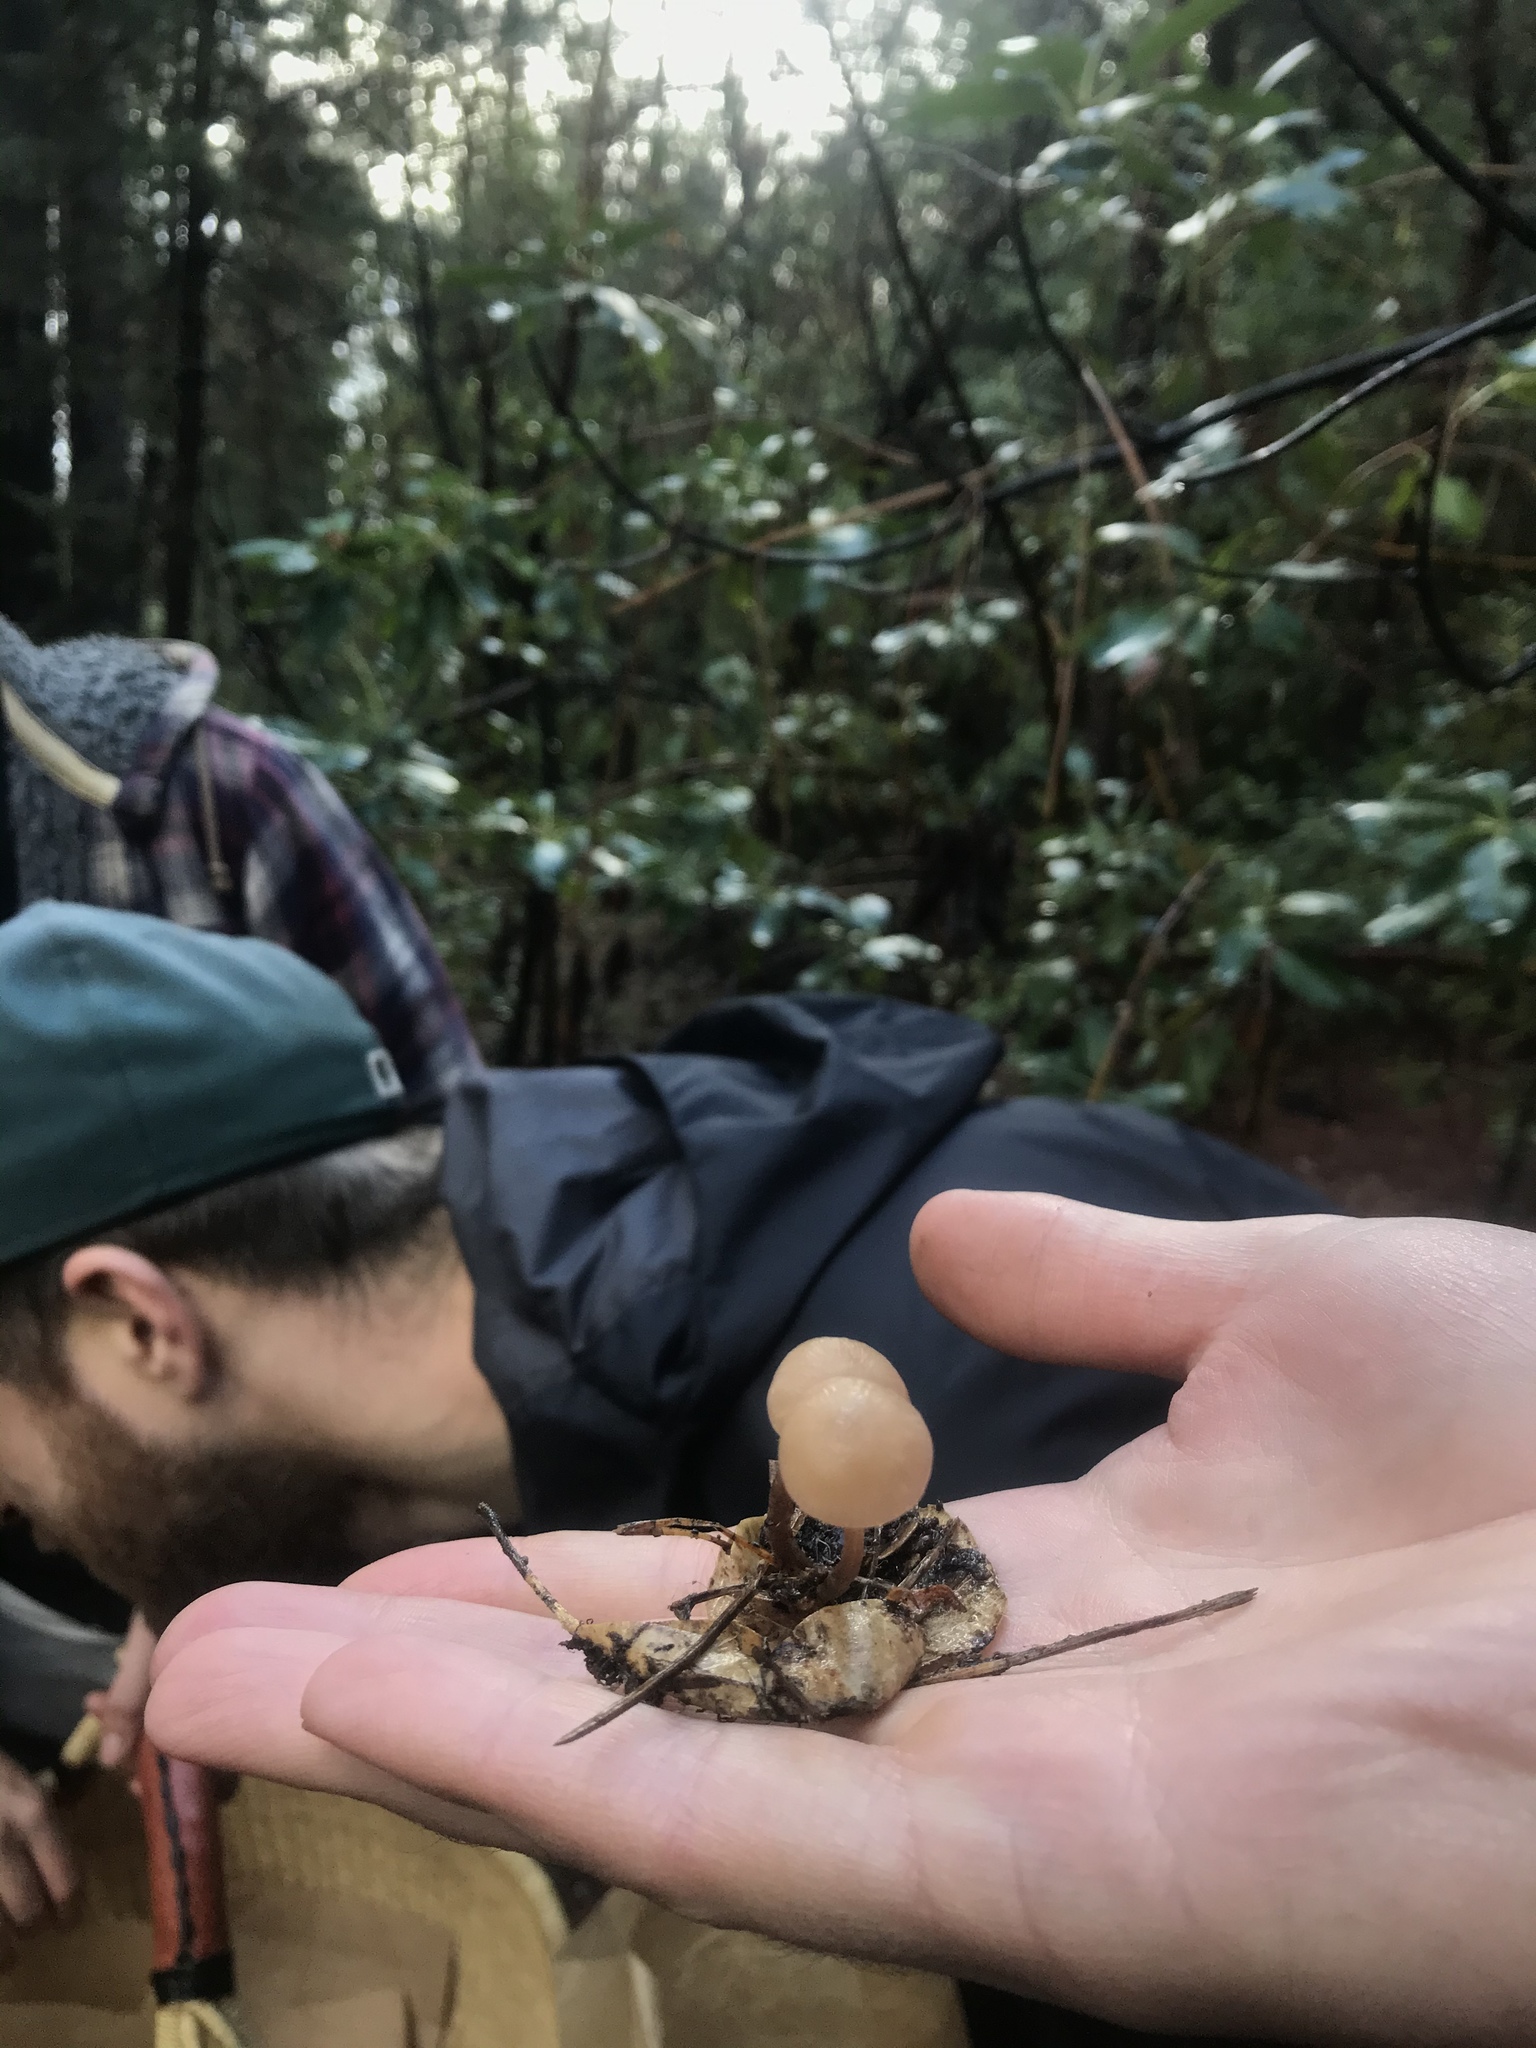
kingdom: Fungi
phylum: Basidiomycota
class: Agaricomycetes
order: Agaricales
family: Omphalotaceae
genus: Mycetinis
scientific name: Mycetinis copelandii
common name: Garlic mushroom
